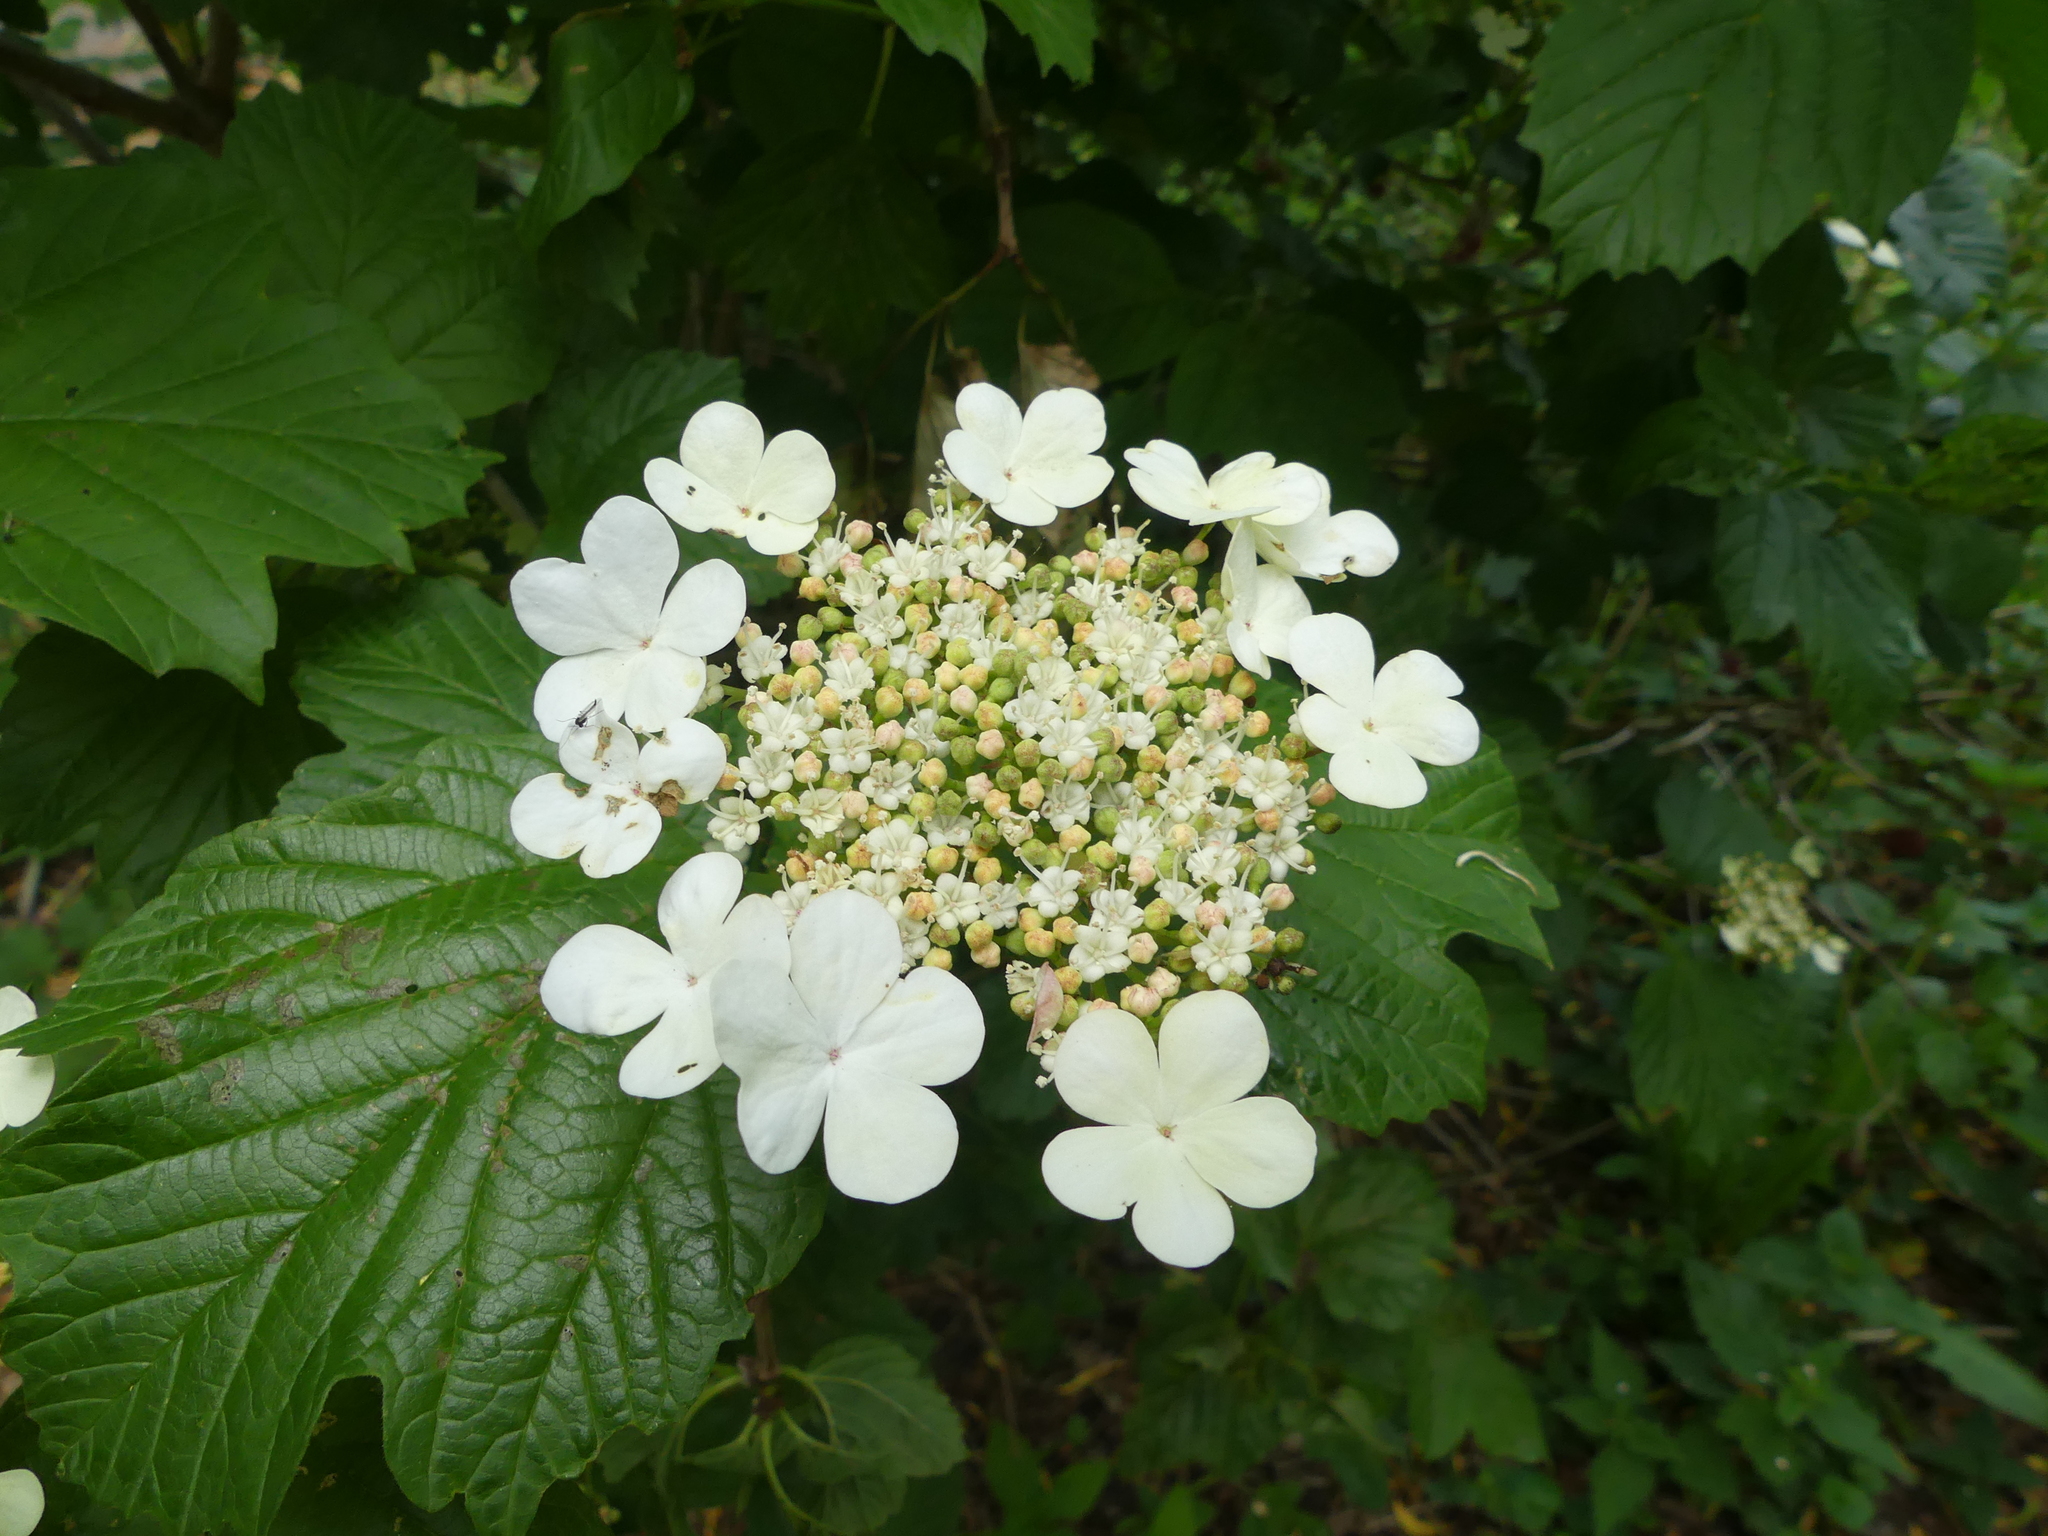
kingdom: Plantae
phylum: Tracheophyta
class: Magnoliopsida
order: Dipsacales
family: Viburnaceae
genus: Viburnum
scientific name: Viburnum opulus
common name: Guelder-rose
